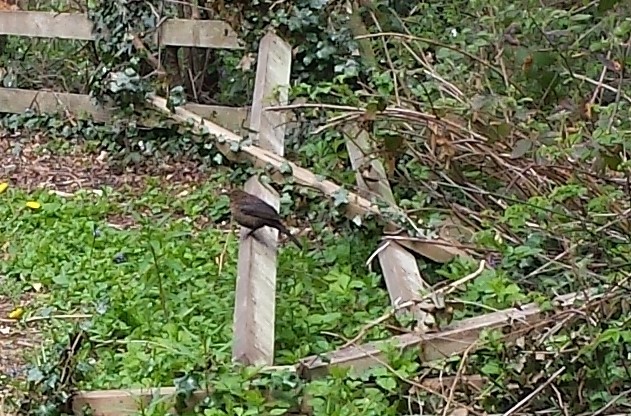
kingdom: Animalia
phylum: Chordata
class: Aves
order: Passeriformes
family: Turdidae
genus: Turdus
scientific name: Turdus merula
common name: Common blackbird
